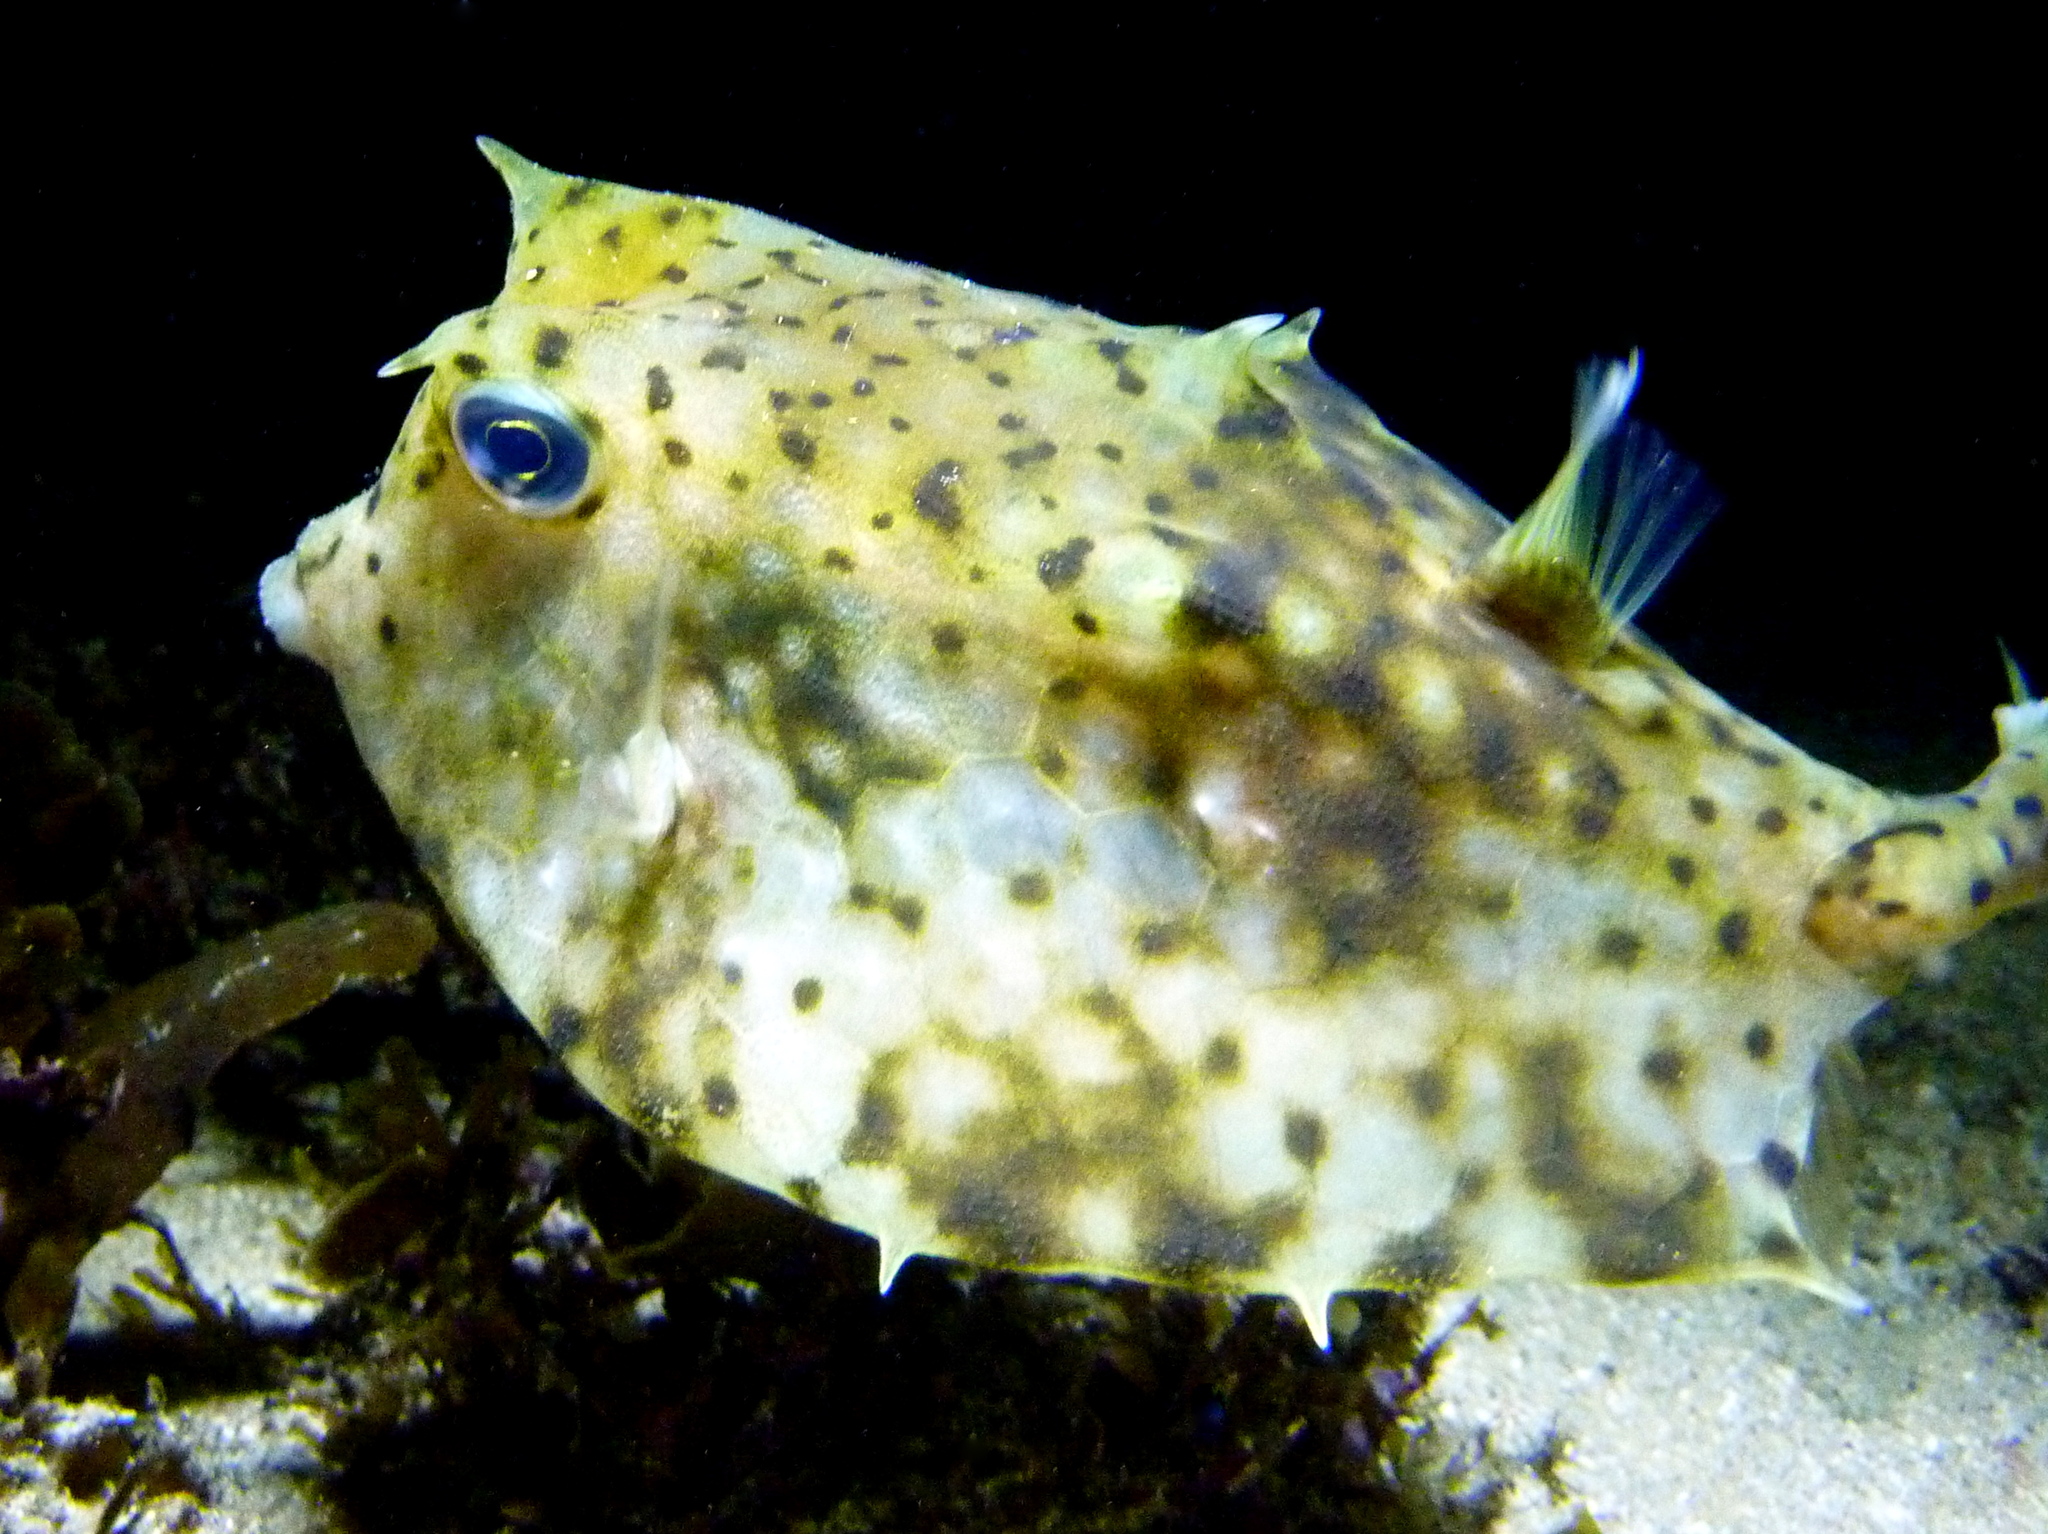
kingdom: Animalia
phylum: Chordata
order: Tetraodontiformes
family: Ostraciidae
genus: Lactoria
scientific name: Lactoria diaphana
